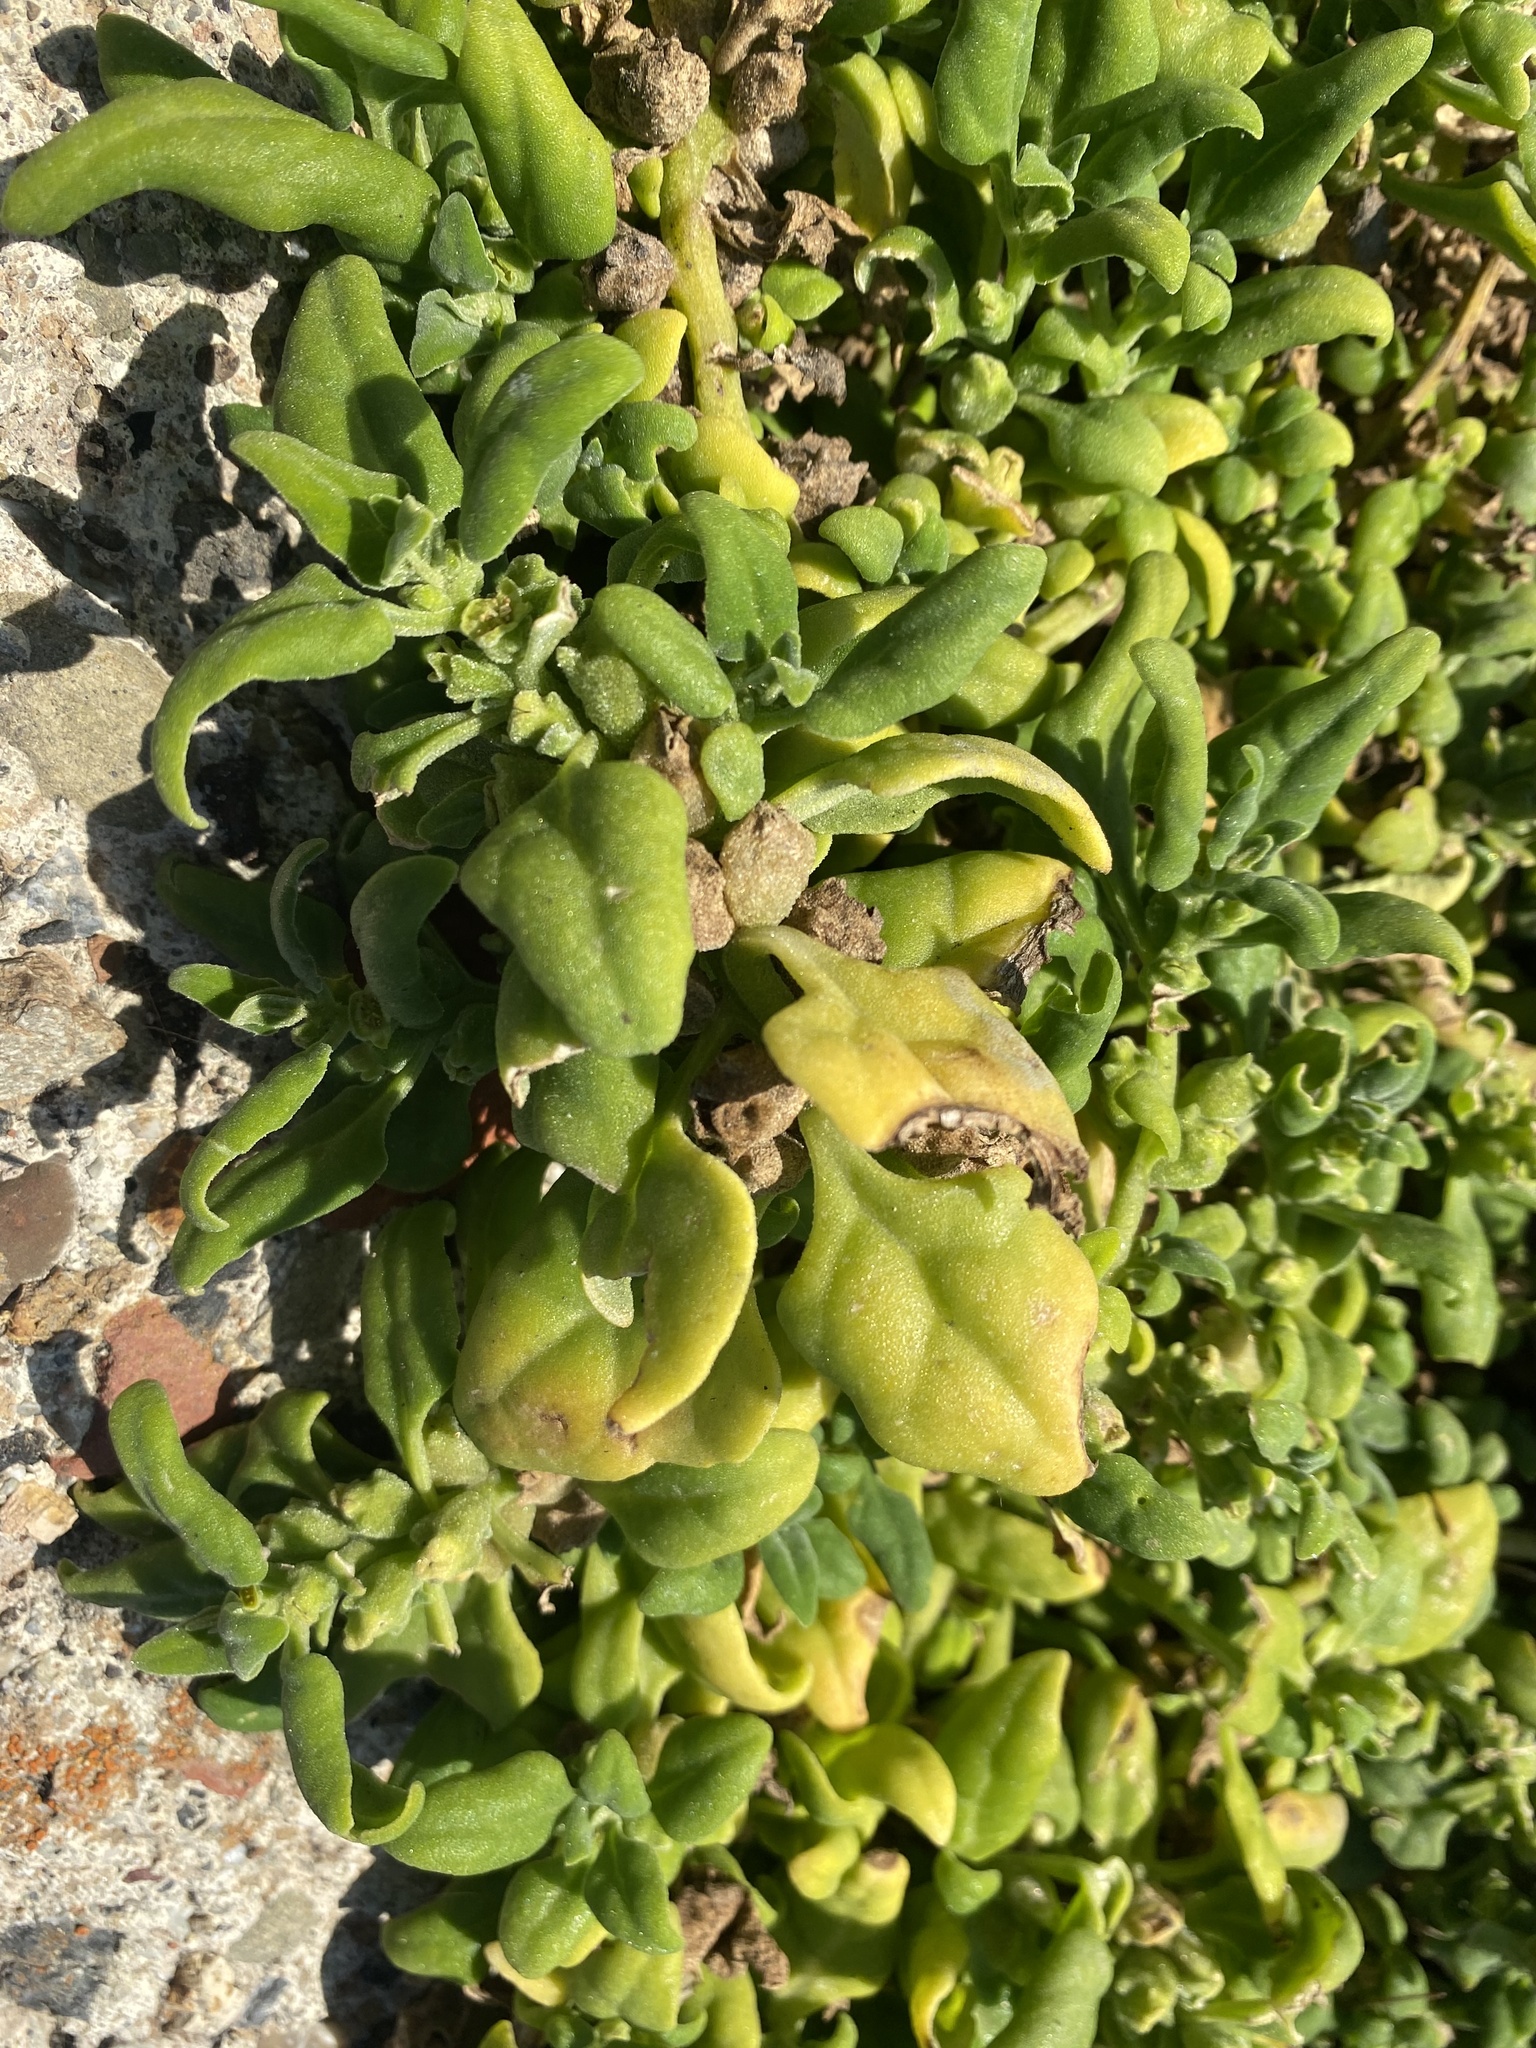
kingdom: Plantae
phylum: Tracheophyta
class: Magnoliopsida
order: Caryophyllales
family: Aizoaceae
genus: Tetragonia
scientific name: Tetragonia tetragonoides
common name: New zealand-spinach
